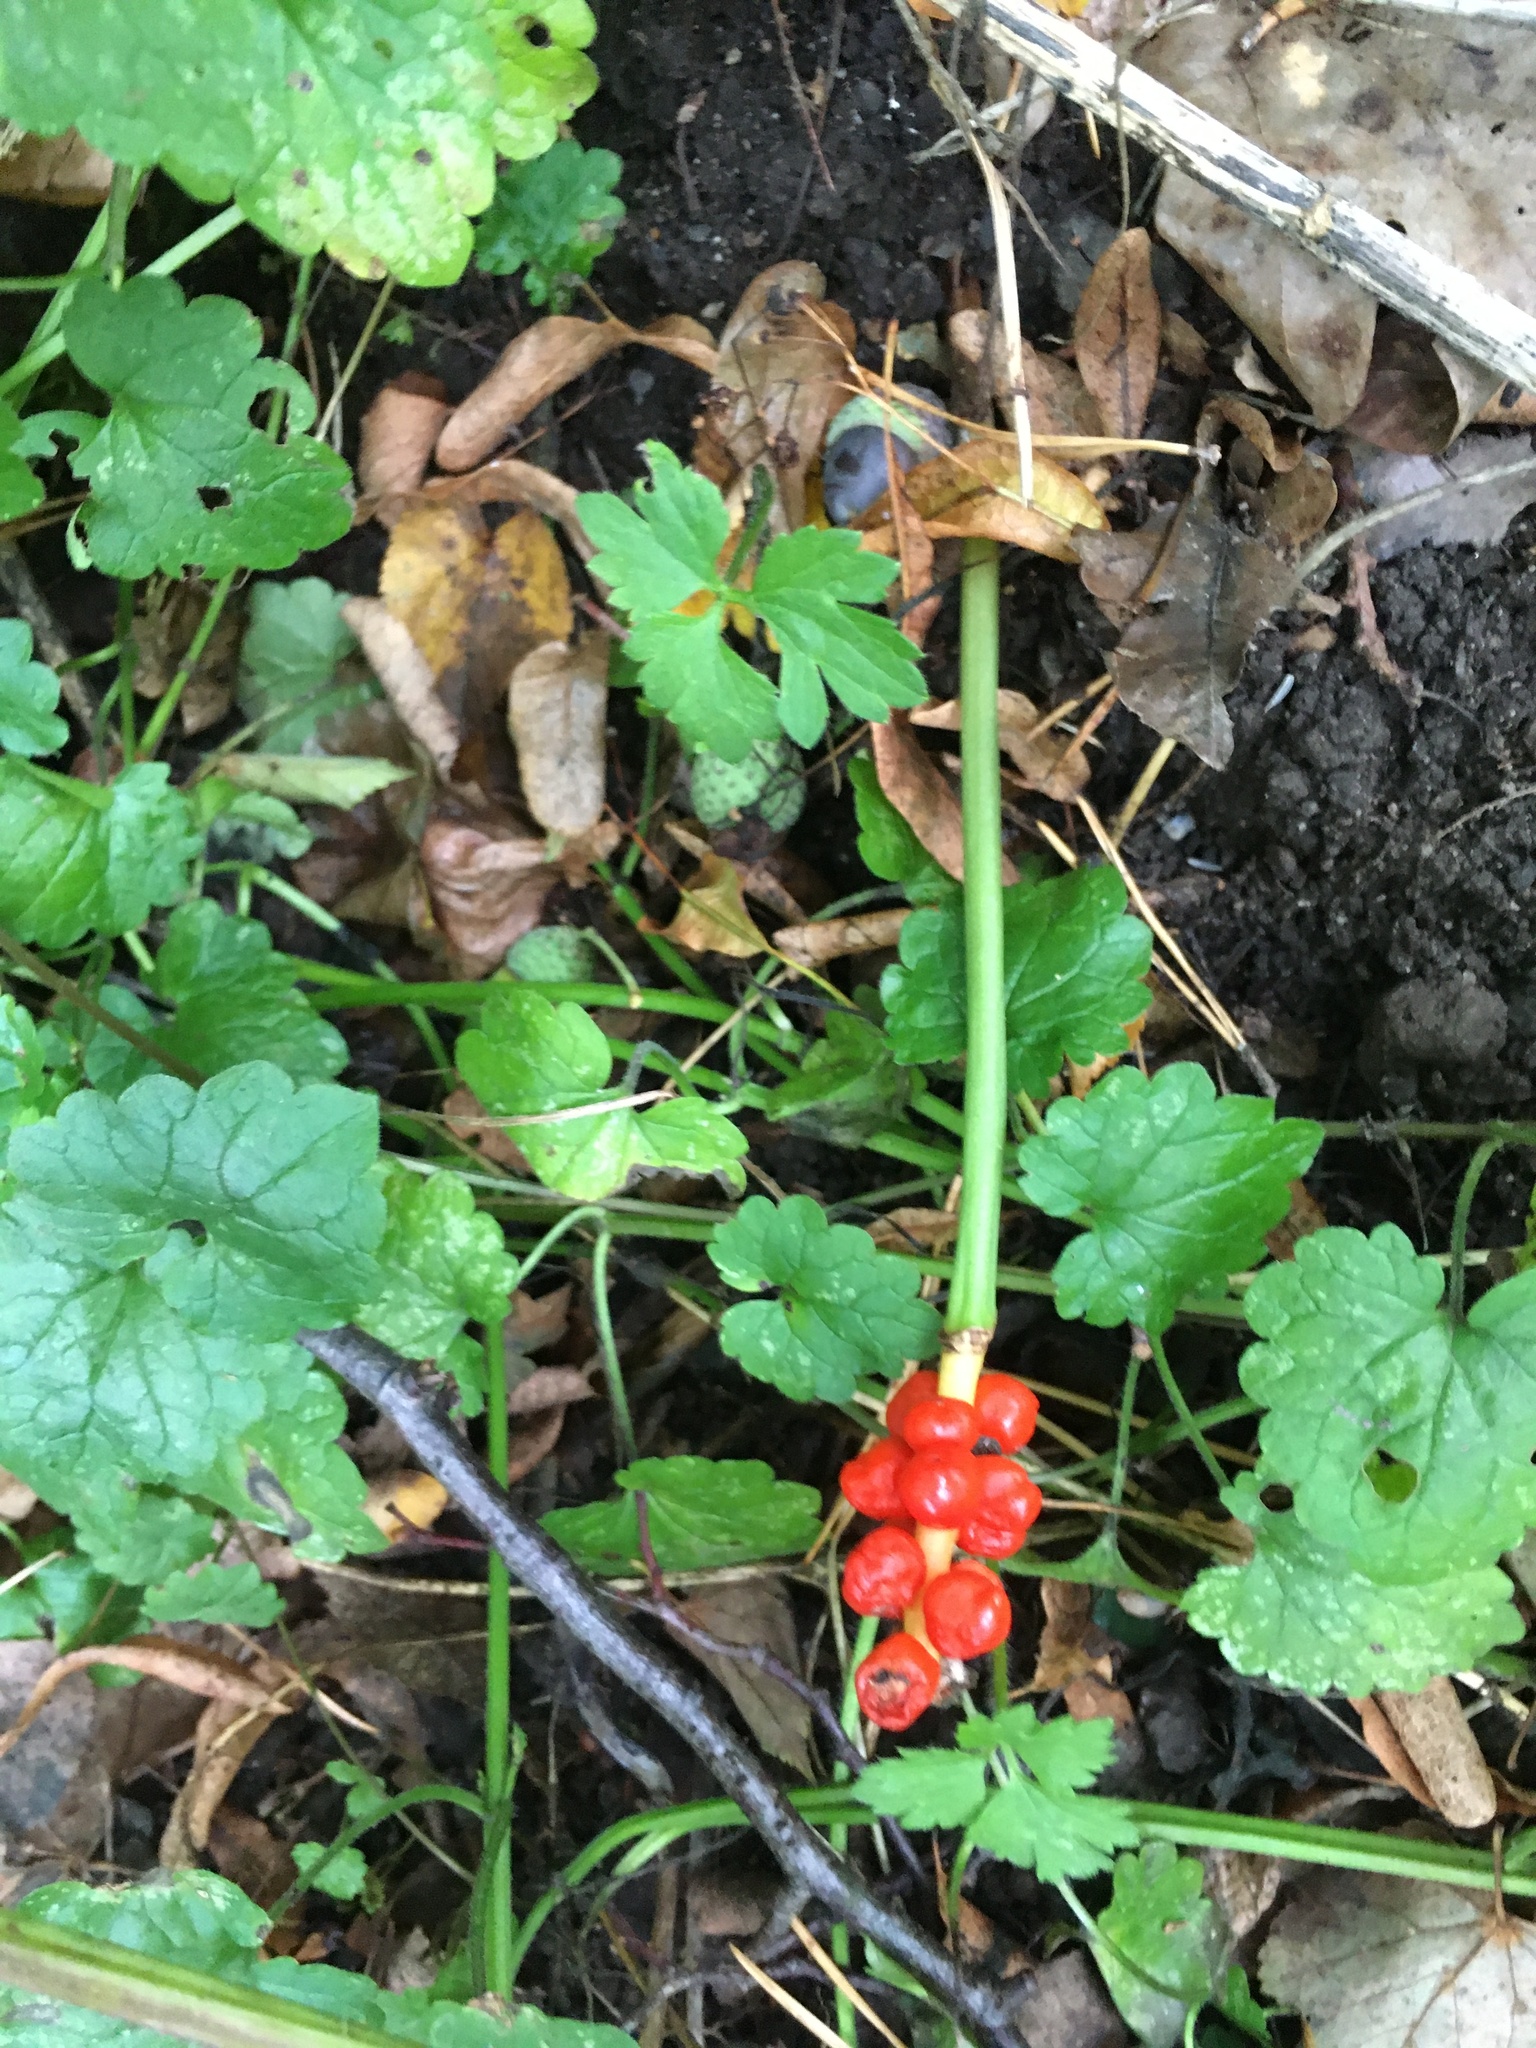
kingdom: Plantae
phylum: Tracheophyta
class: Liliopsida
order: Alismatales
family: Araceae
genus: Arum
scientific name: Arum maculatum
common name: Lords-and-ladies
